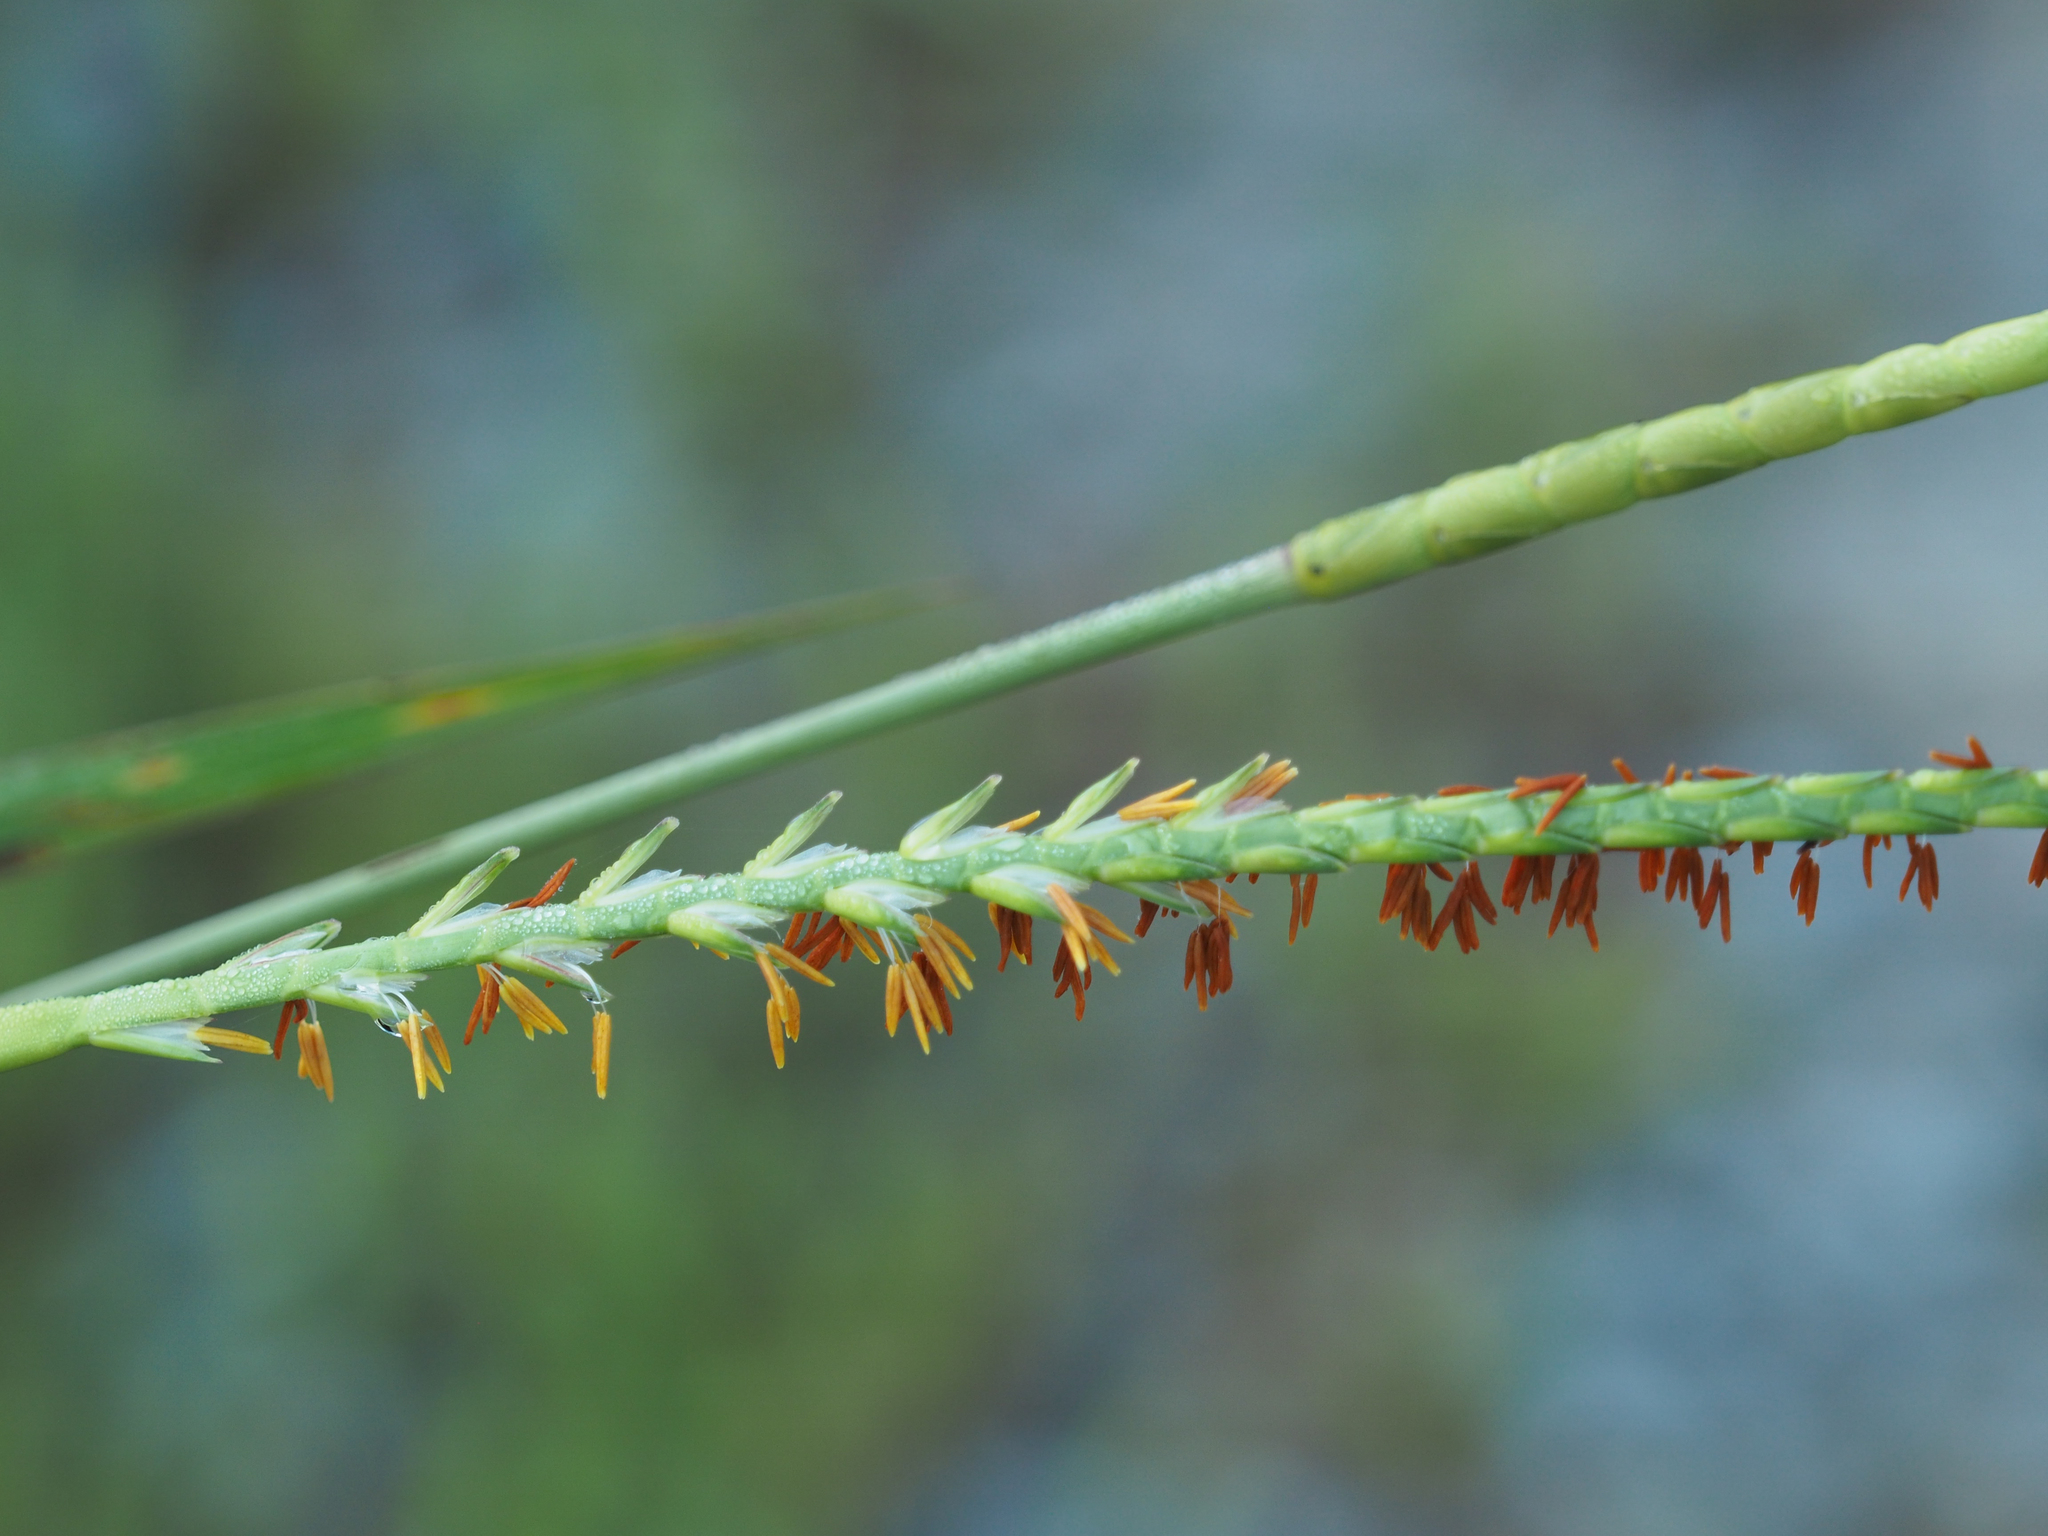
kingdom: Plantae
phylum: Tracheophyta
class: Liliopsida
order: Poales
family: Poaceae
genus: Tripsacum
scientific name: Tripsacum dactyloides
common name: Buffalo-grass
